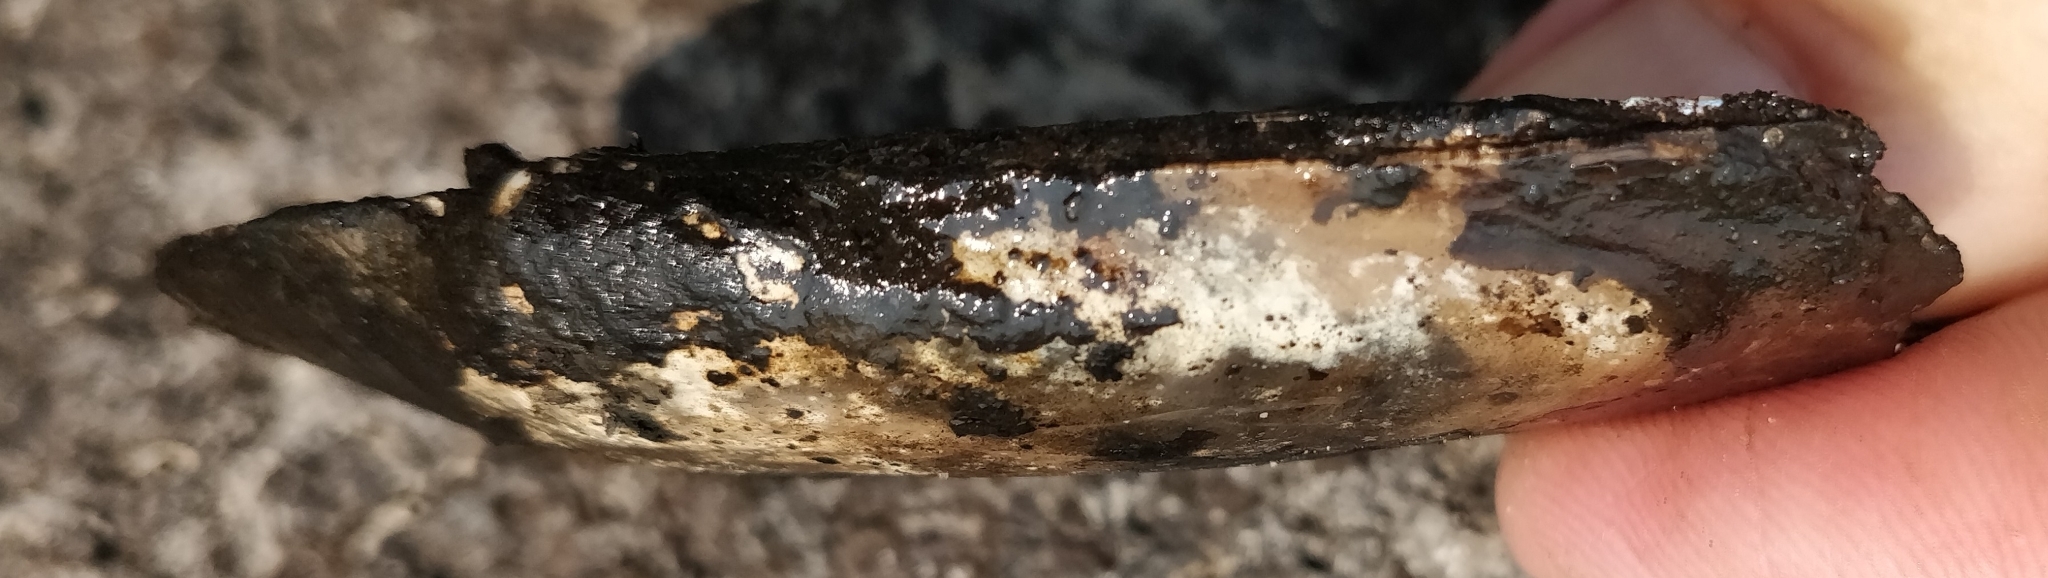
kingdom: Animalia
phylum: Mollusca
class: Bivalvia
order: Unionida
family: Unionidae
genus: Ligumia
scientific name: Ligumia recta
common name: Black sandshell
